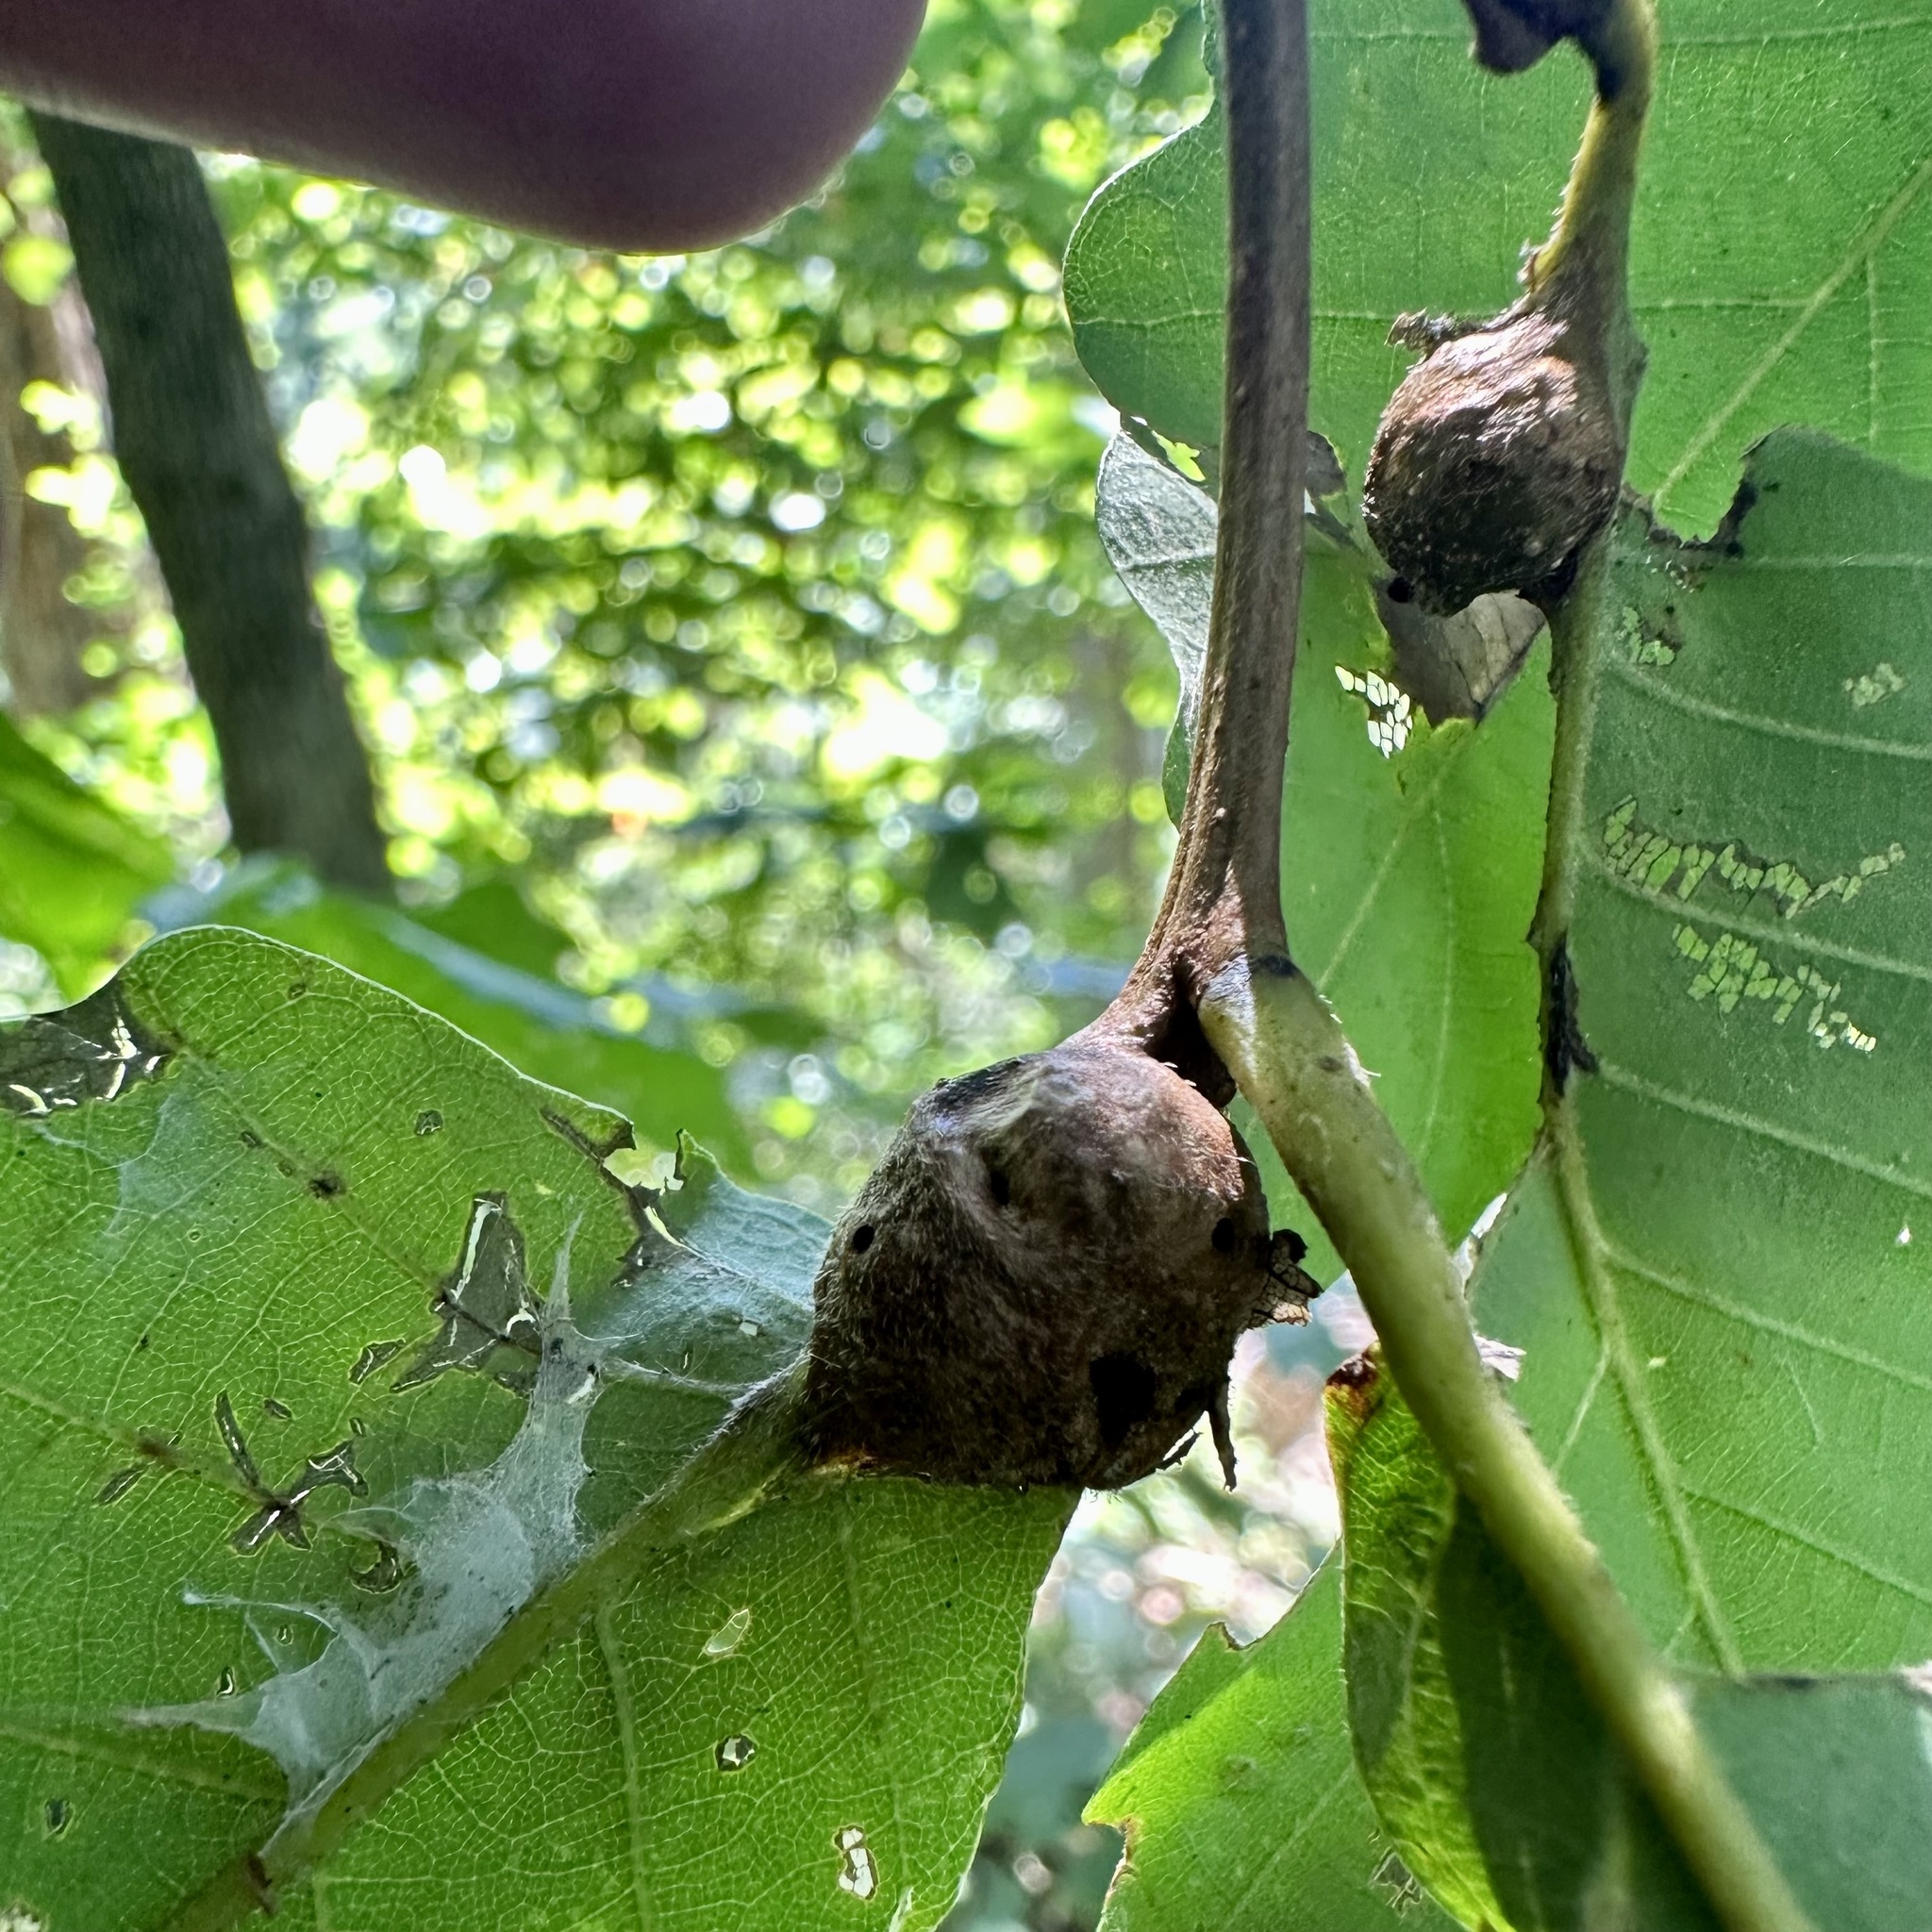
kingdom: Animalia
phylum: Arthropoda
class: Insecta
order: Hymenoptera
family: Cynipidae
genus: Andricus
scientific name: Andricus
